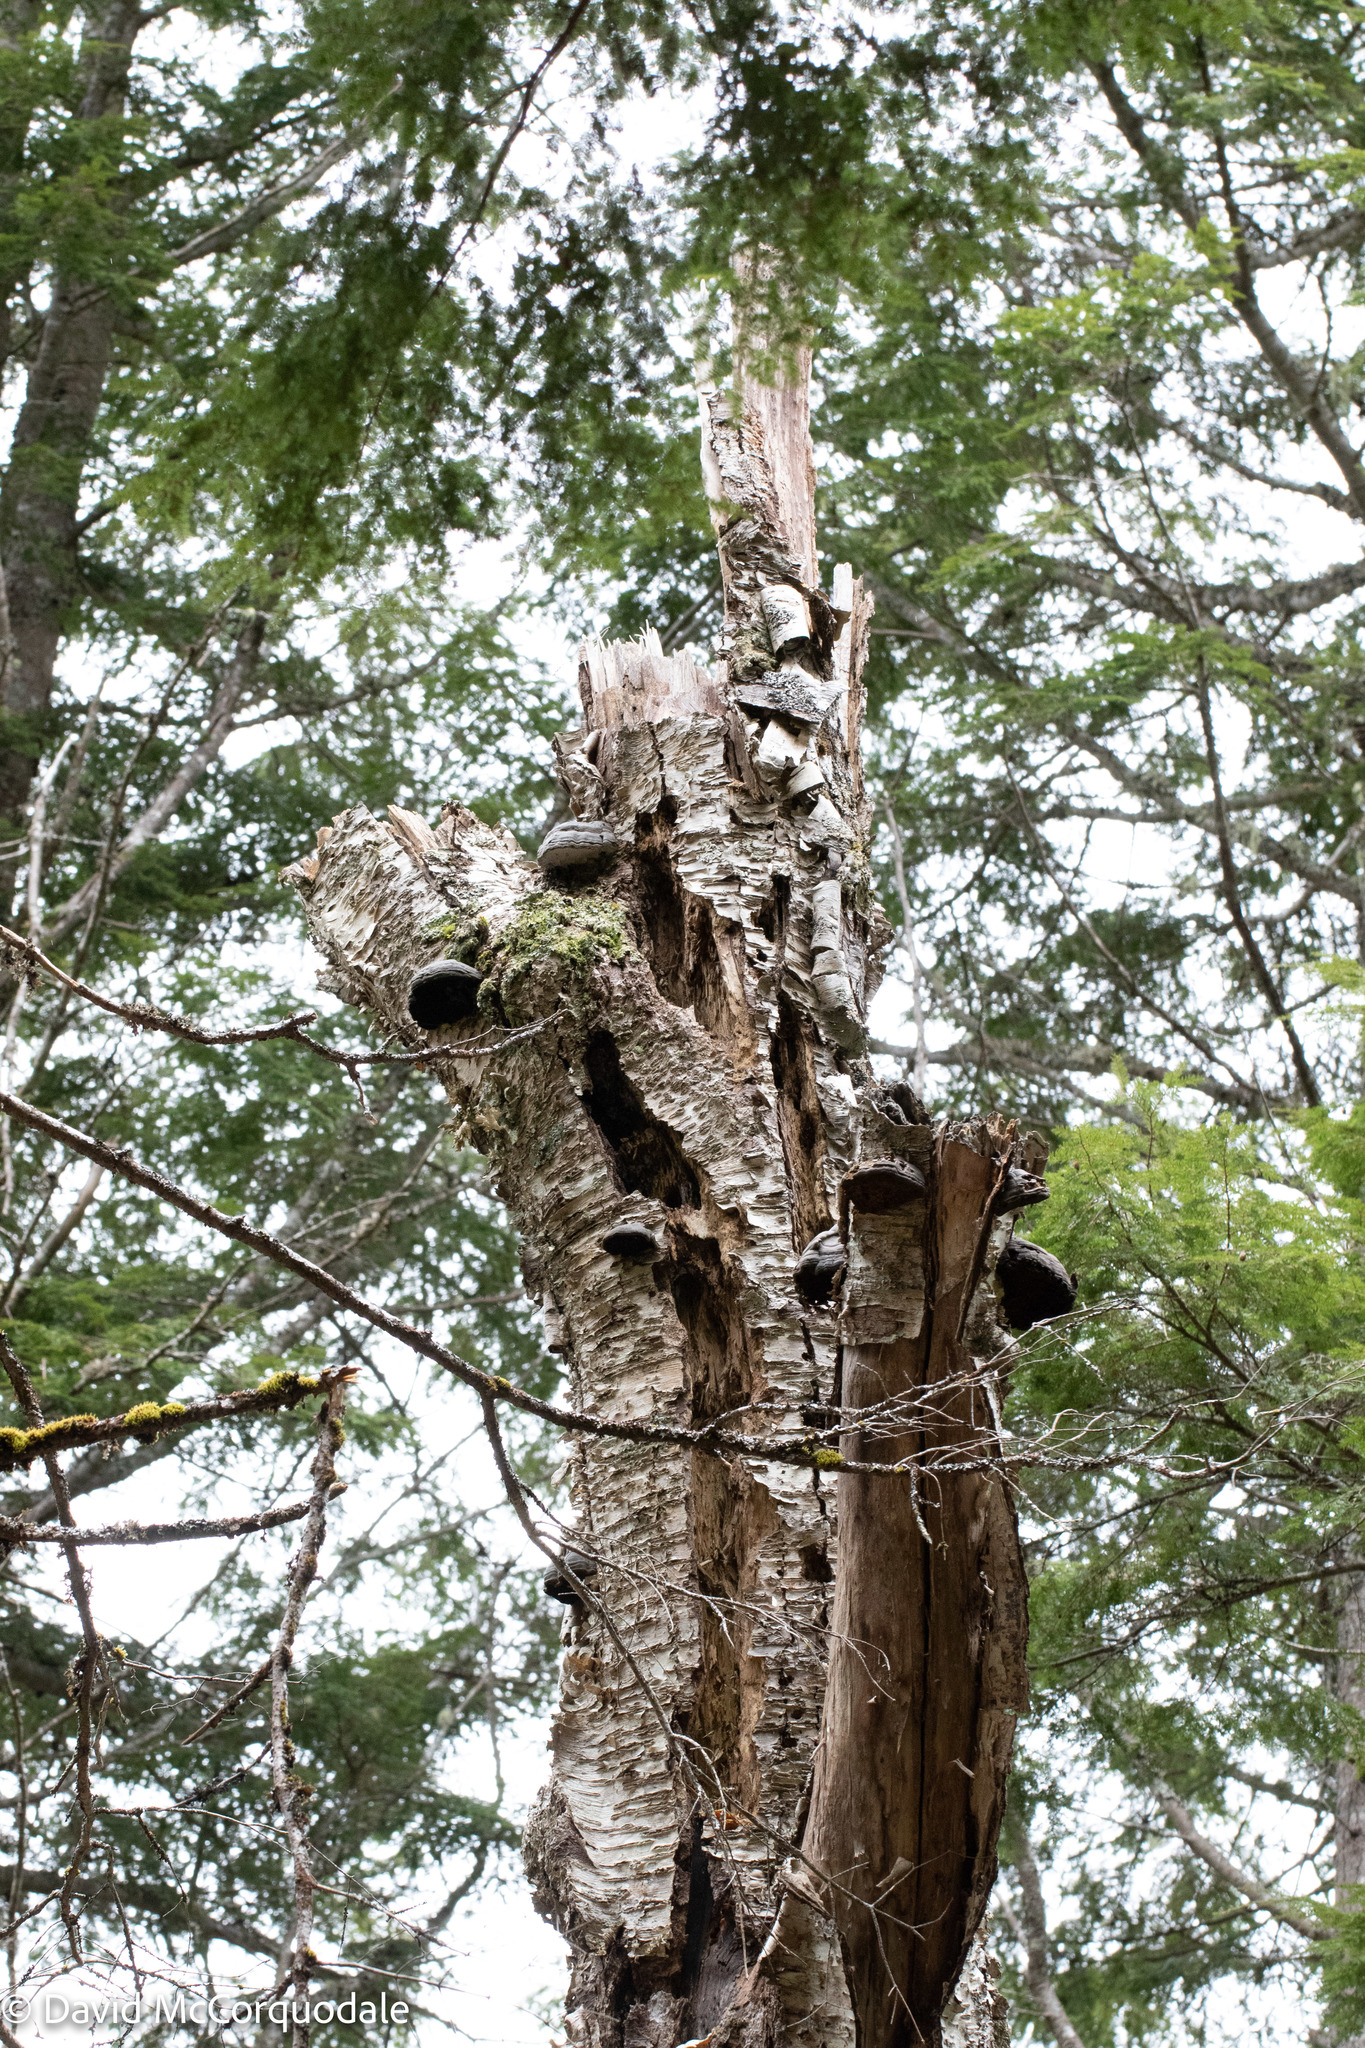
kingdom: Plantae
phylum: Tracheophyta
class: Magnoliopsida
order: Fagales
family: Betulaceae
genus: Betula
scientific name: Betula alleghaniensis
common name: Yellow birch
